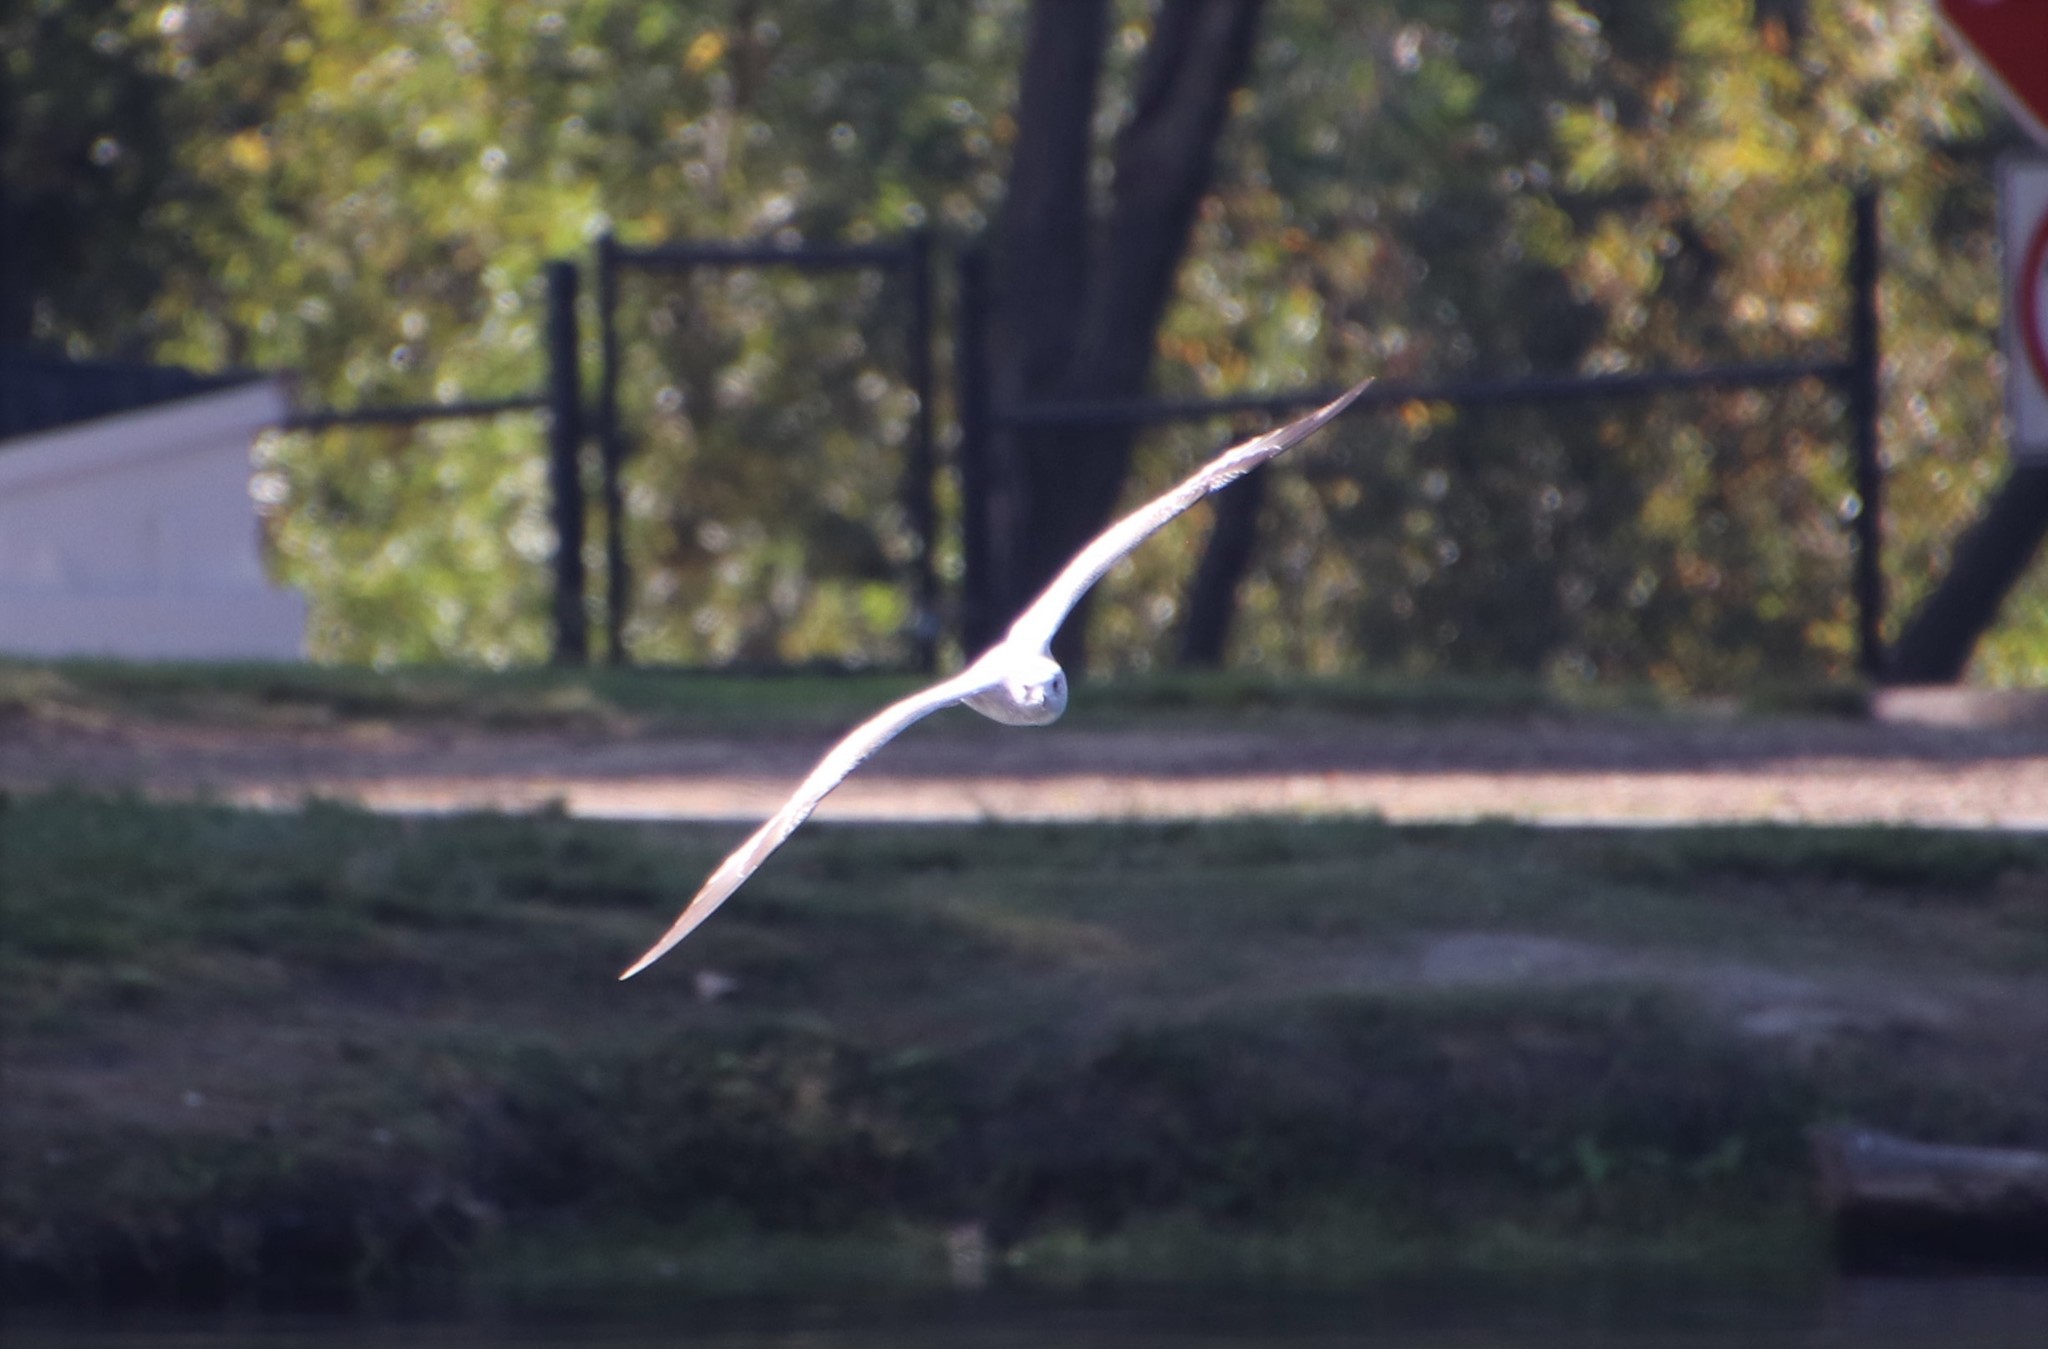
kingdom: Animalia
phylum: Chordata
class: Aves
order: Charadriiformes
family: Laridae
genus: Larus
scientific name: Larus delawarensis
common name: Ring-billed gull
